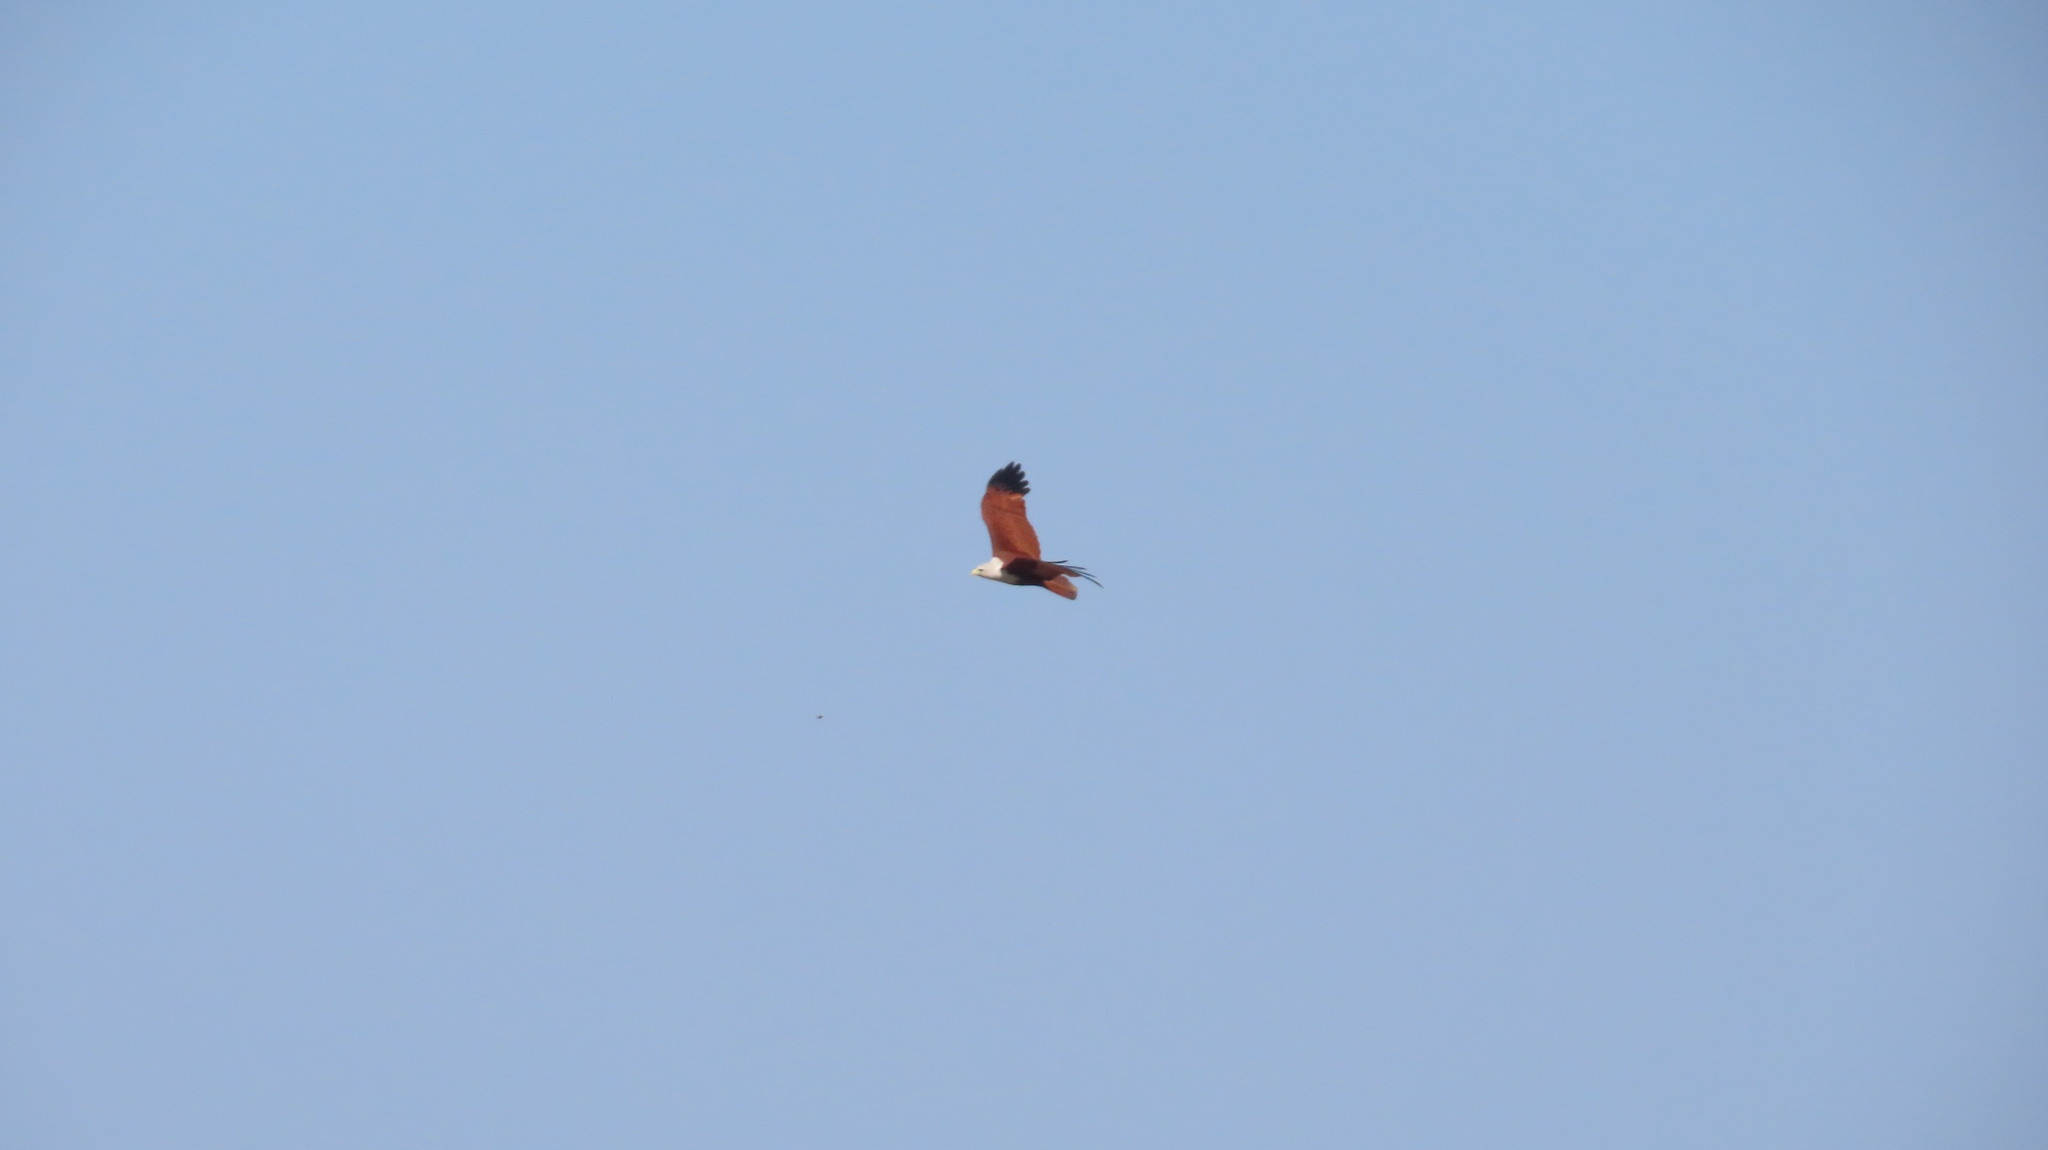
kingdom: Animalia
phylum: Chordata
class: Aves
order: Accipitriformes
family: Accipitridae
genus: Haliastur
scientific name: Haliastur indus
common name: Brahminy kite
